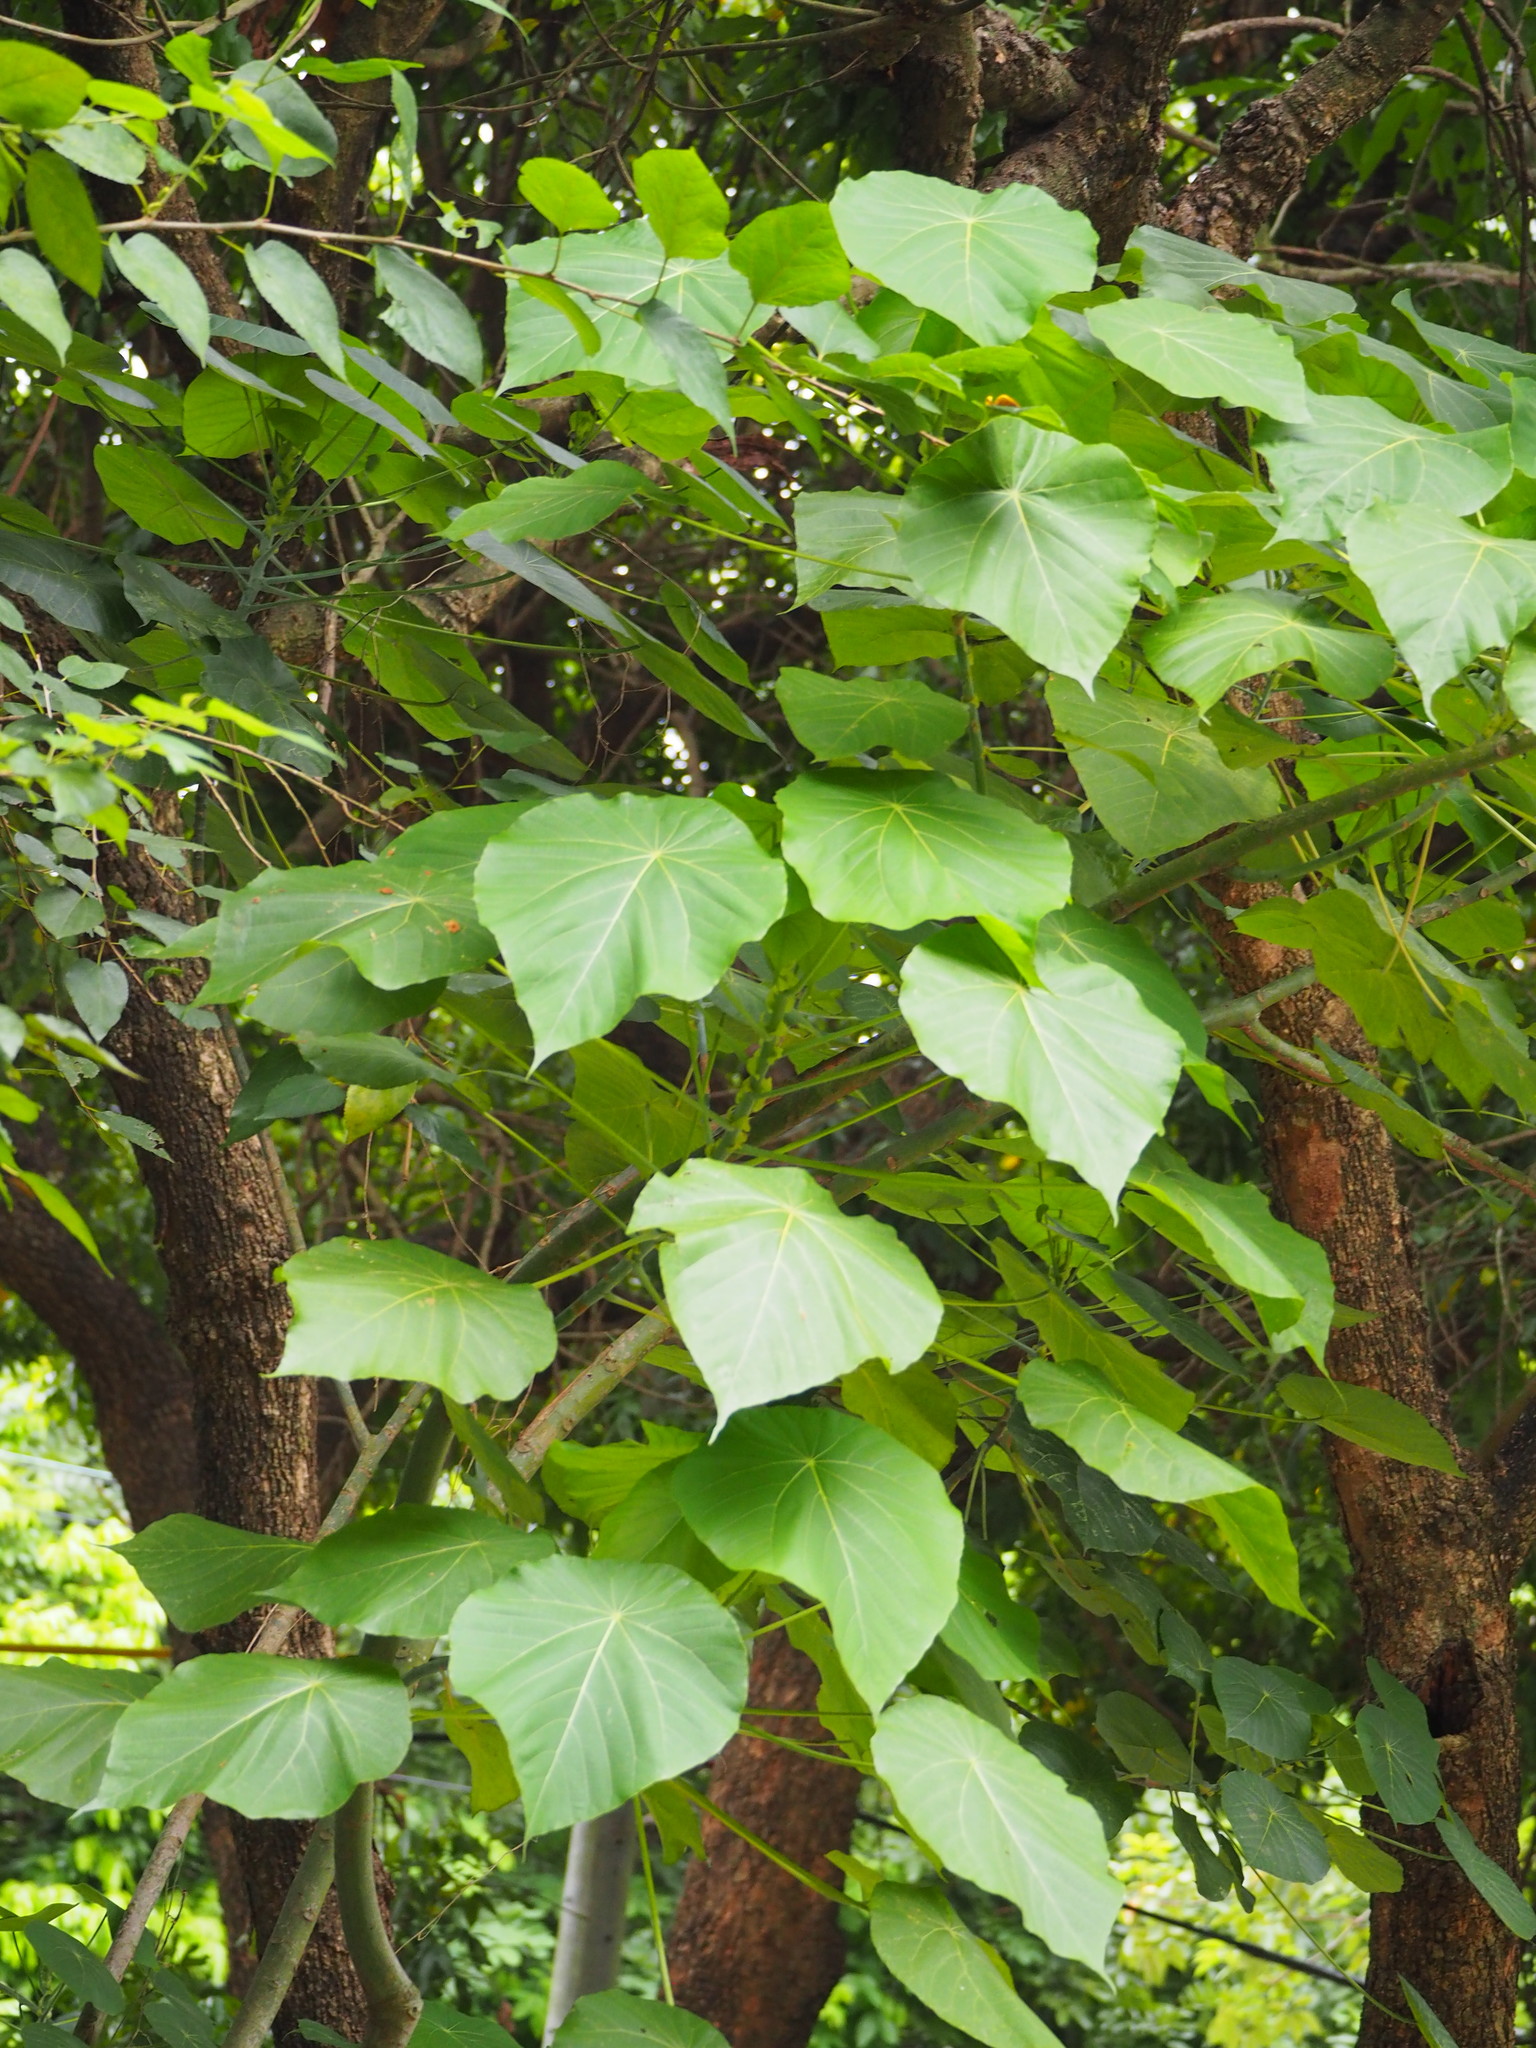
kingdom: Plantae
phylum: Tracheophyta
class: Magnoliopsida
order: Malpighiales
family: Euphorbiaceae
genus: Macaranga
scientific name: Macaranga tanarius
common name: Parasol leaf tree
